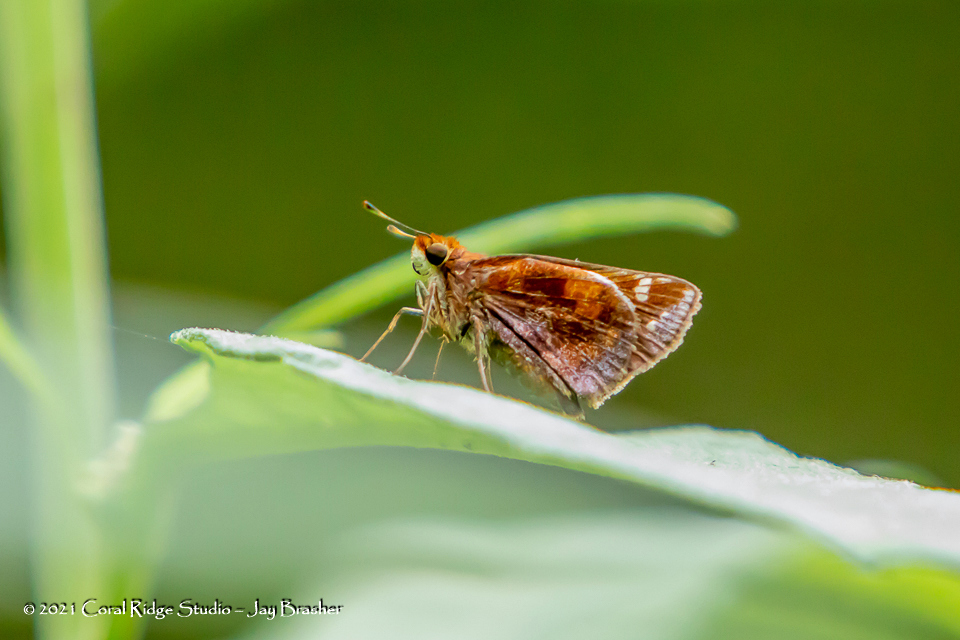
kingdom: Animalia
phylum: Arthropoda
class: Insecta
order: Lepidoptera
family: Hesperiidae
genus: Lon
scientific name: Lon zabulon
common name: Zabulon skipper
